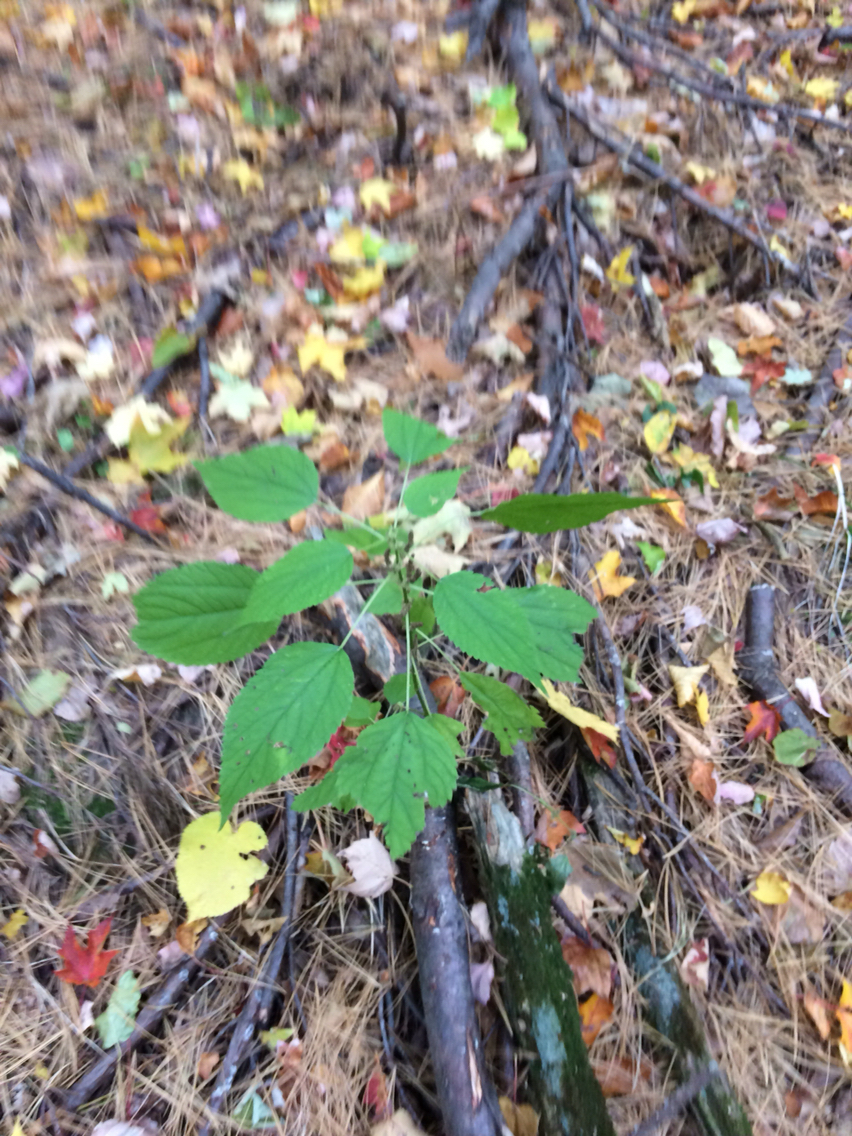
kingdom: Plantae
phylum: Tracheophyta
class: Magnoliopsida
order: Rosales
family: Urticaceae
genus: Laportea
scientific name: Laportea canadensis
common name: Canada nettle
